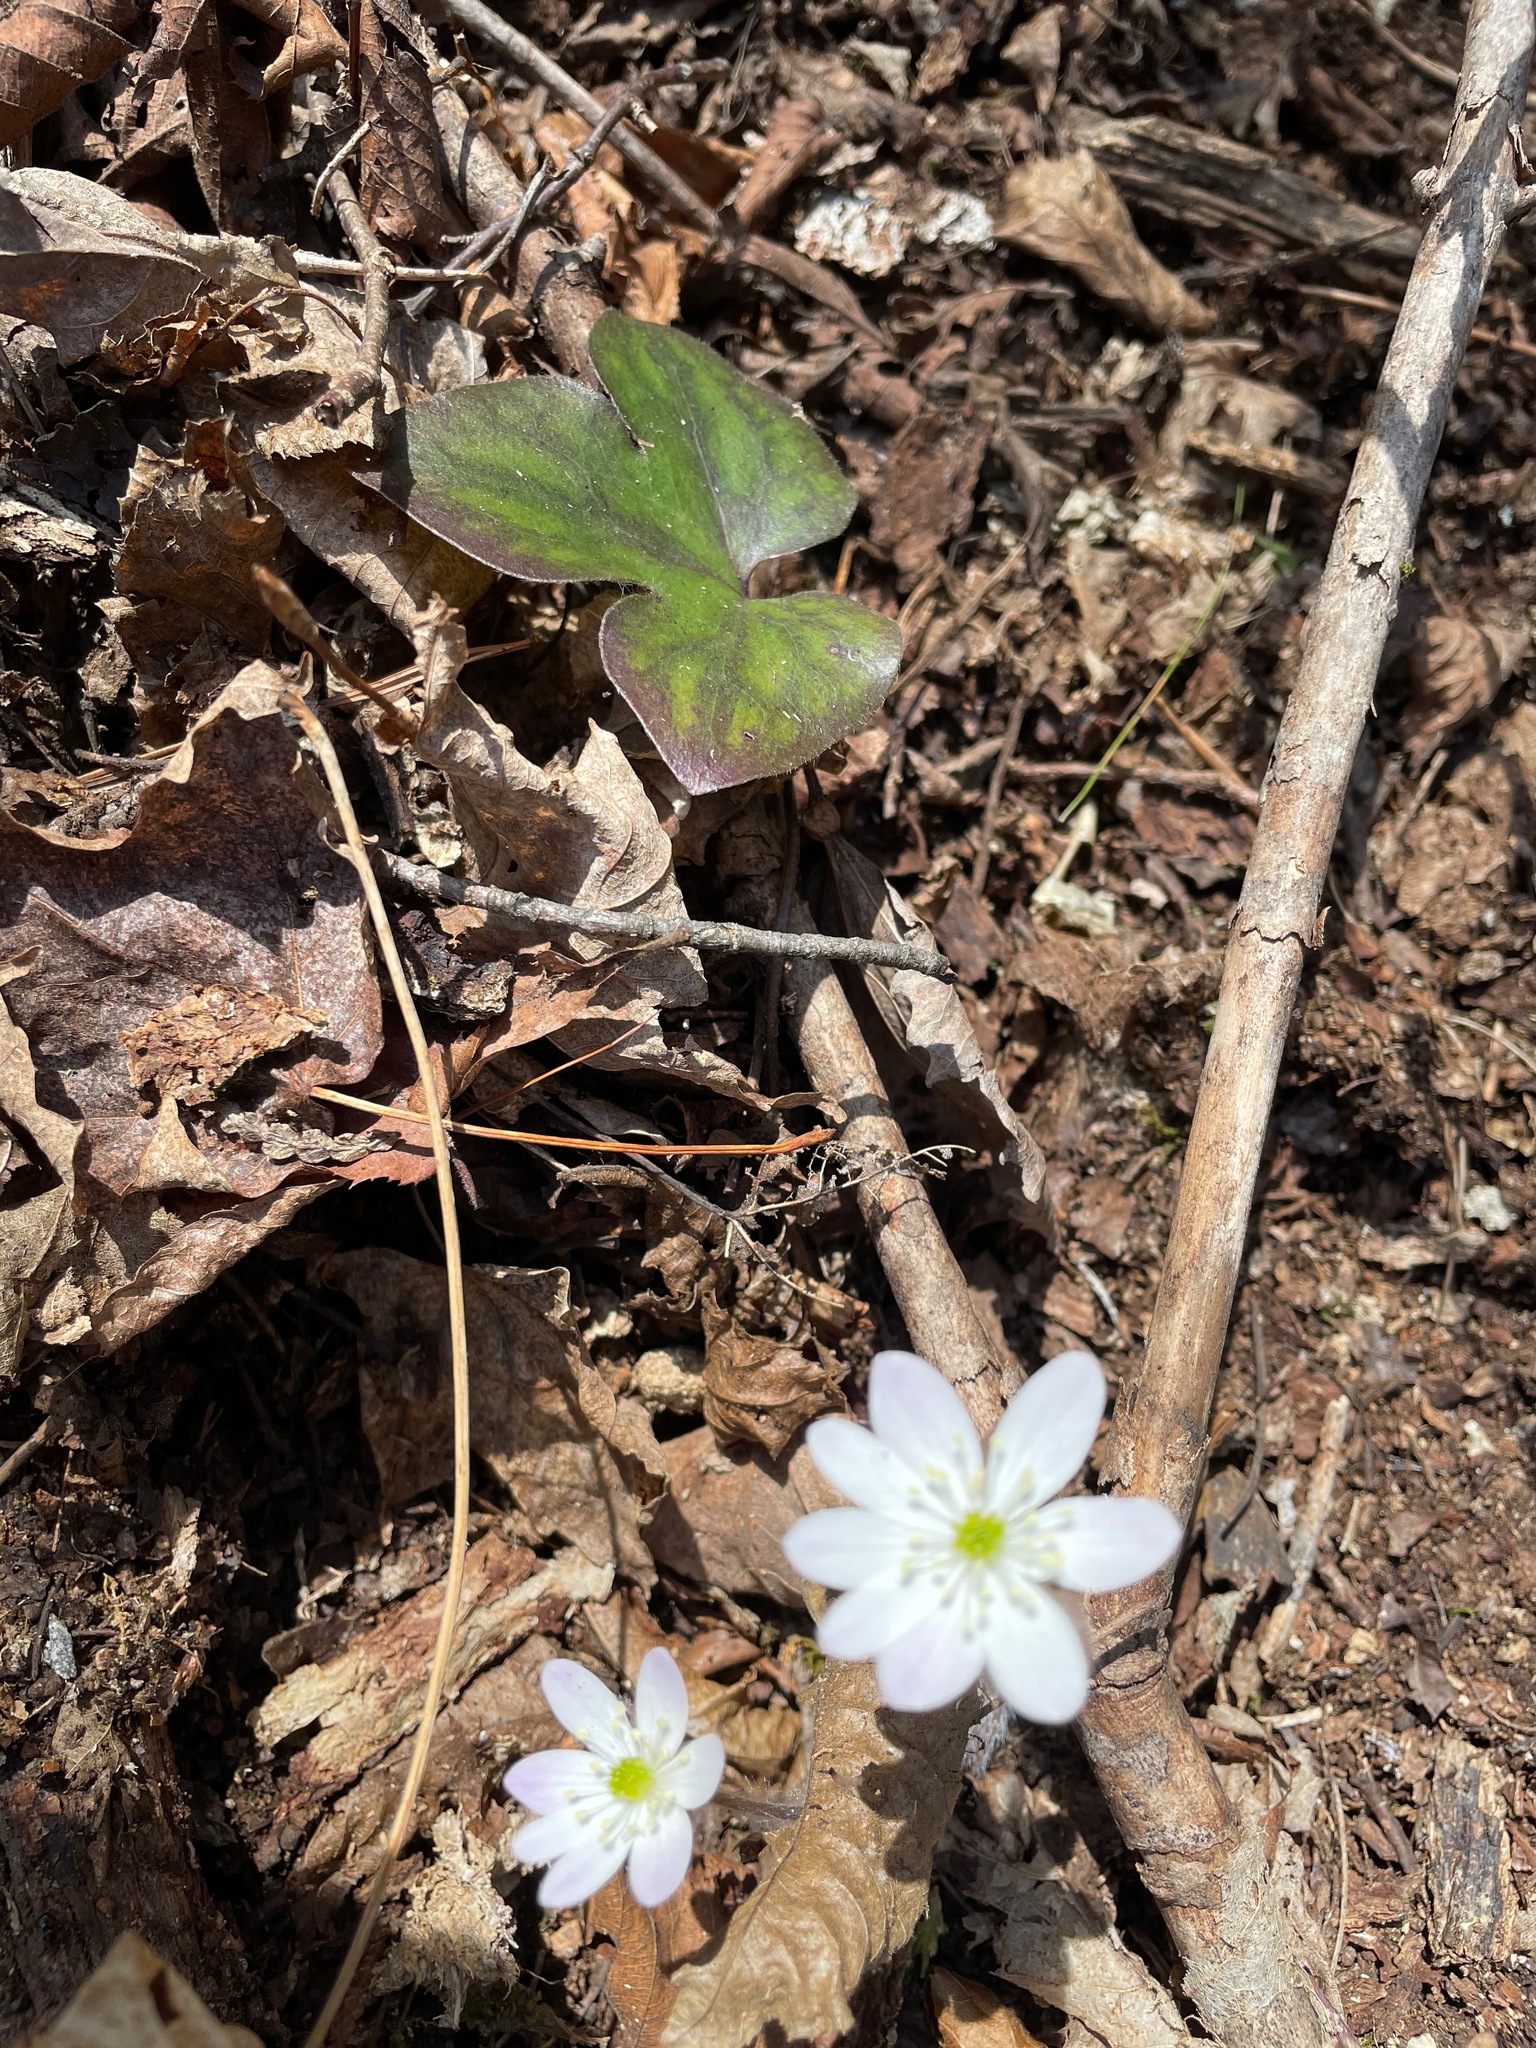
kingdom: Plantae
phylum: Tracheophyta
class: Magnoliopsida
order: Ranunculales
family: Ranunculaceae
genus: Hepatica
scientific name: Hepatica acutiloba
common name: Sharp-lobed hepatica
